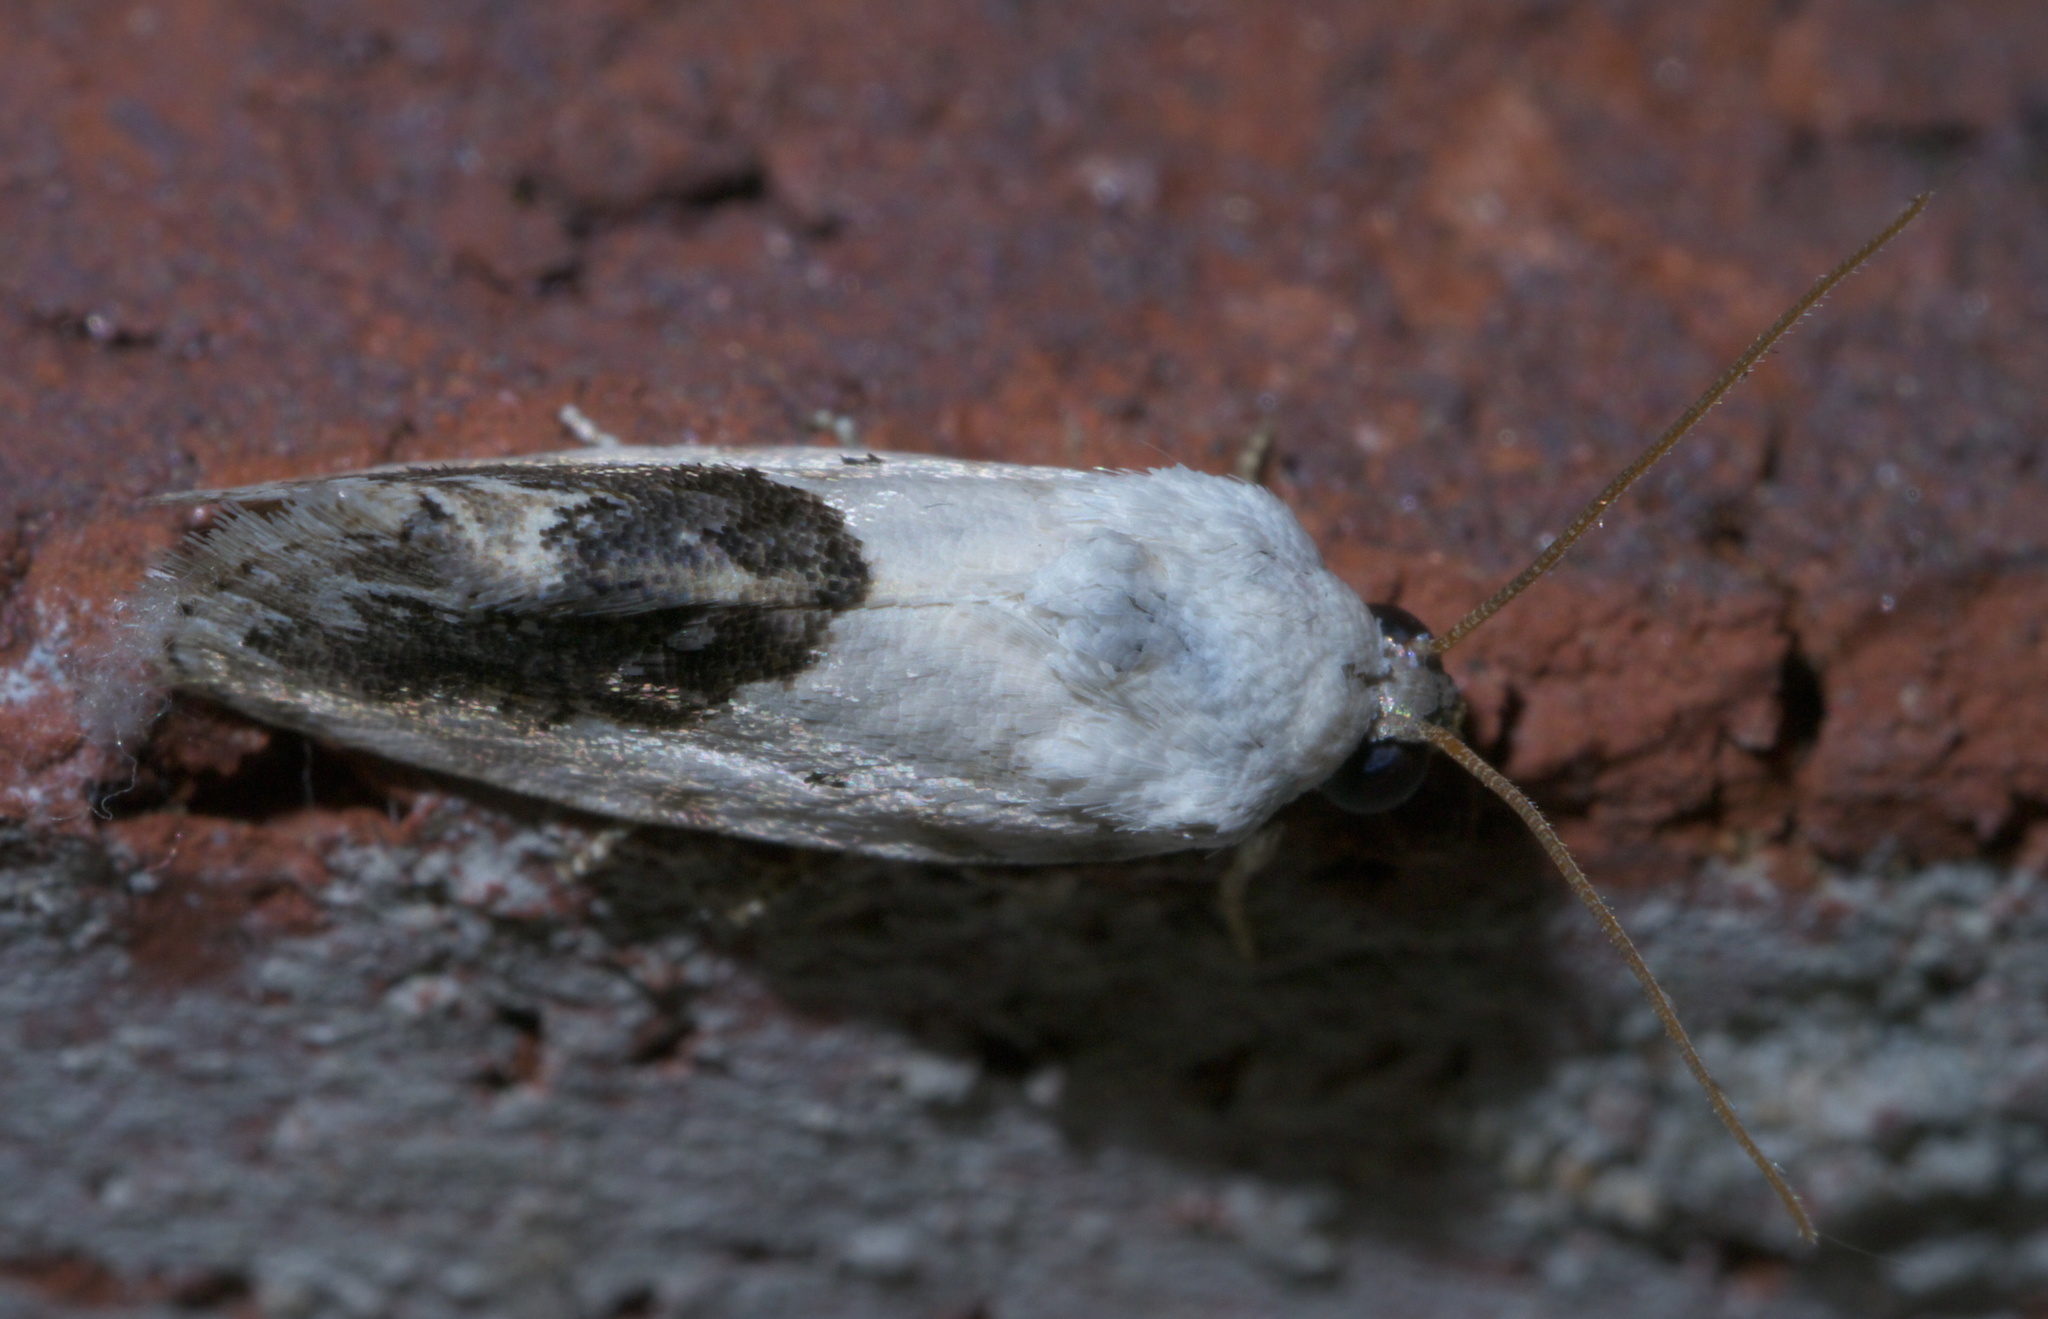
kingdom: Animalia
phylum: Arthropoda
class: Insecta
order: Lepidoptera
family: Noctuidae
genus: Acontia
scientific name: Acontia erastrioides
